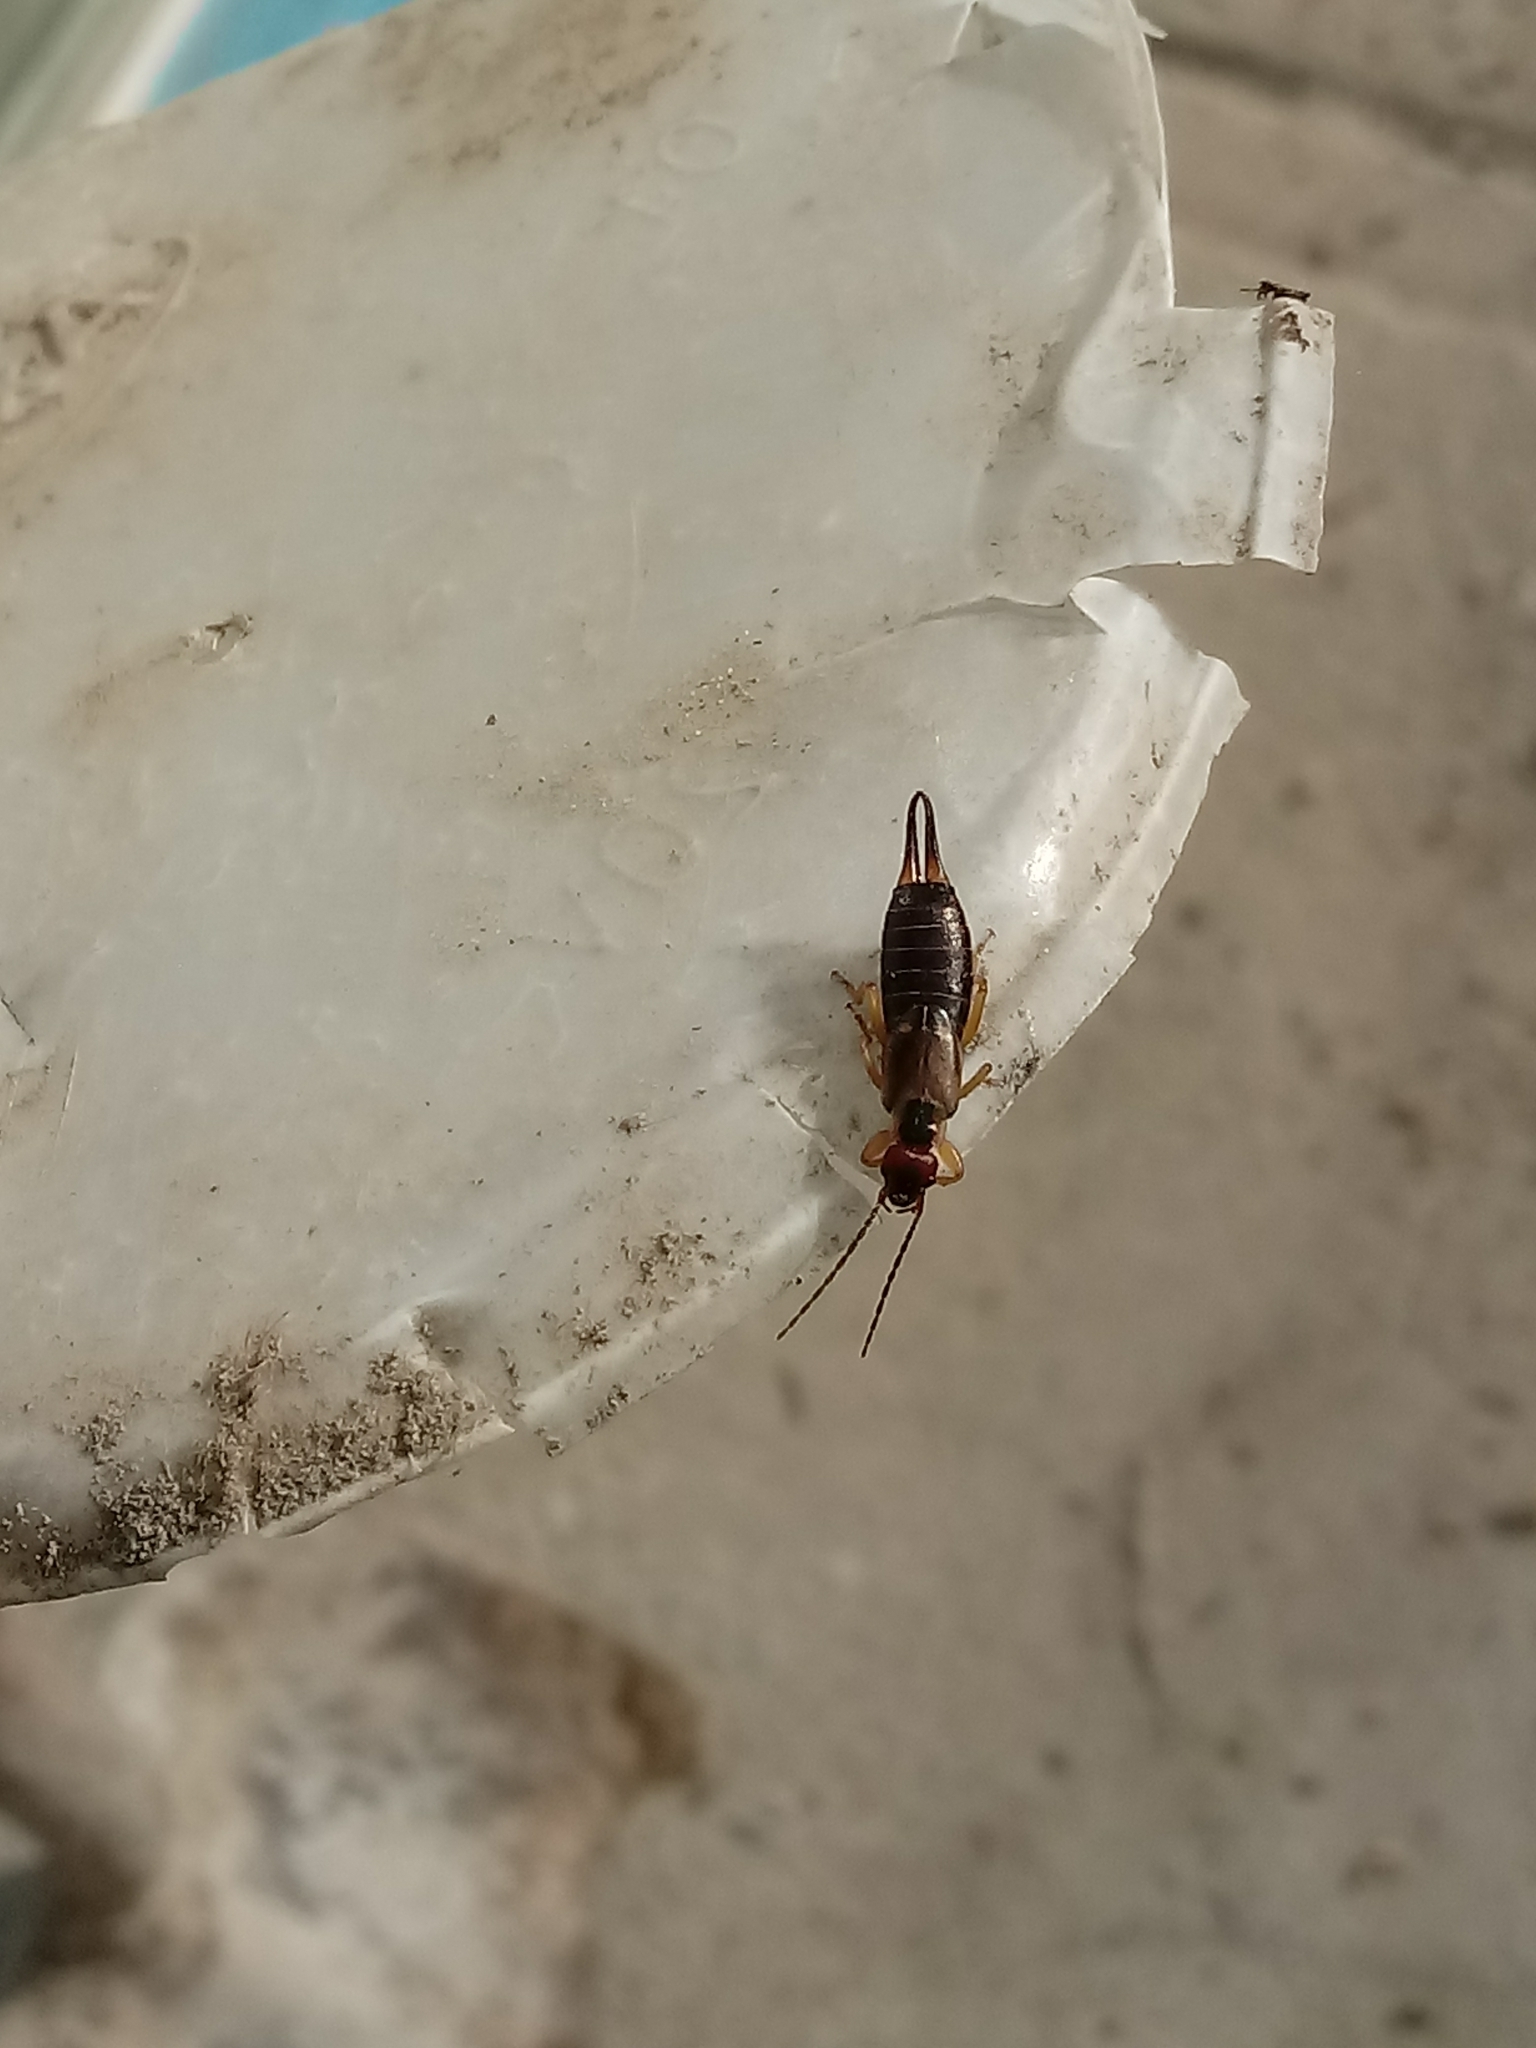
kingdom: Animalia
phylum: Arthropoda
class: Insecta
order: Dermaptera
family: Forficulidae
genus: Forficula
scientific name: Forficula
